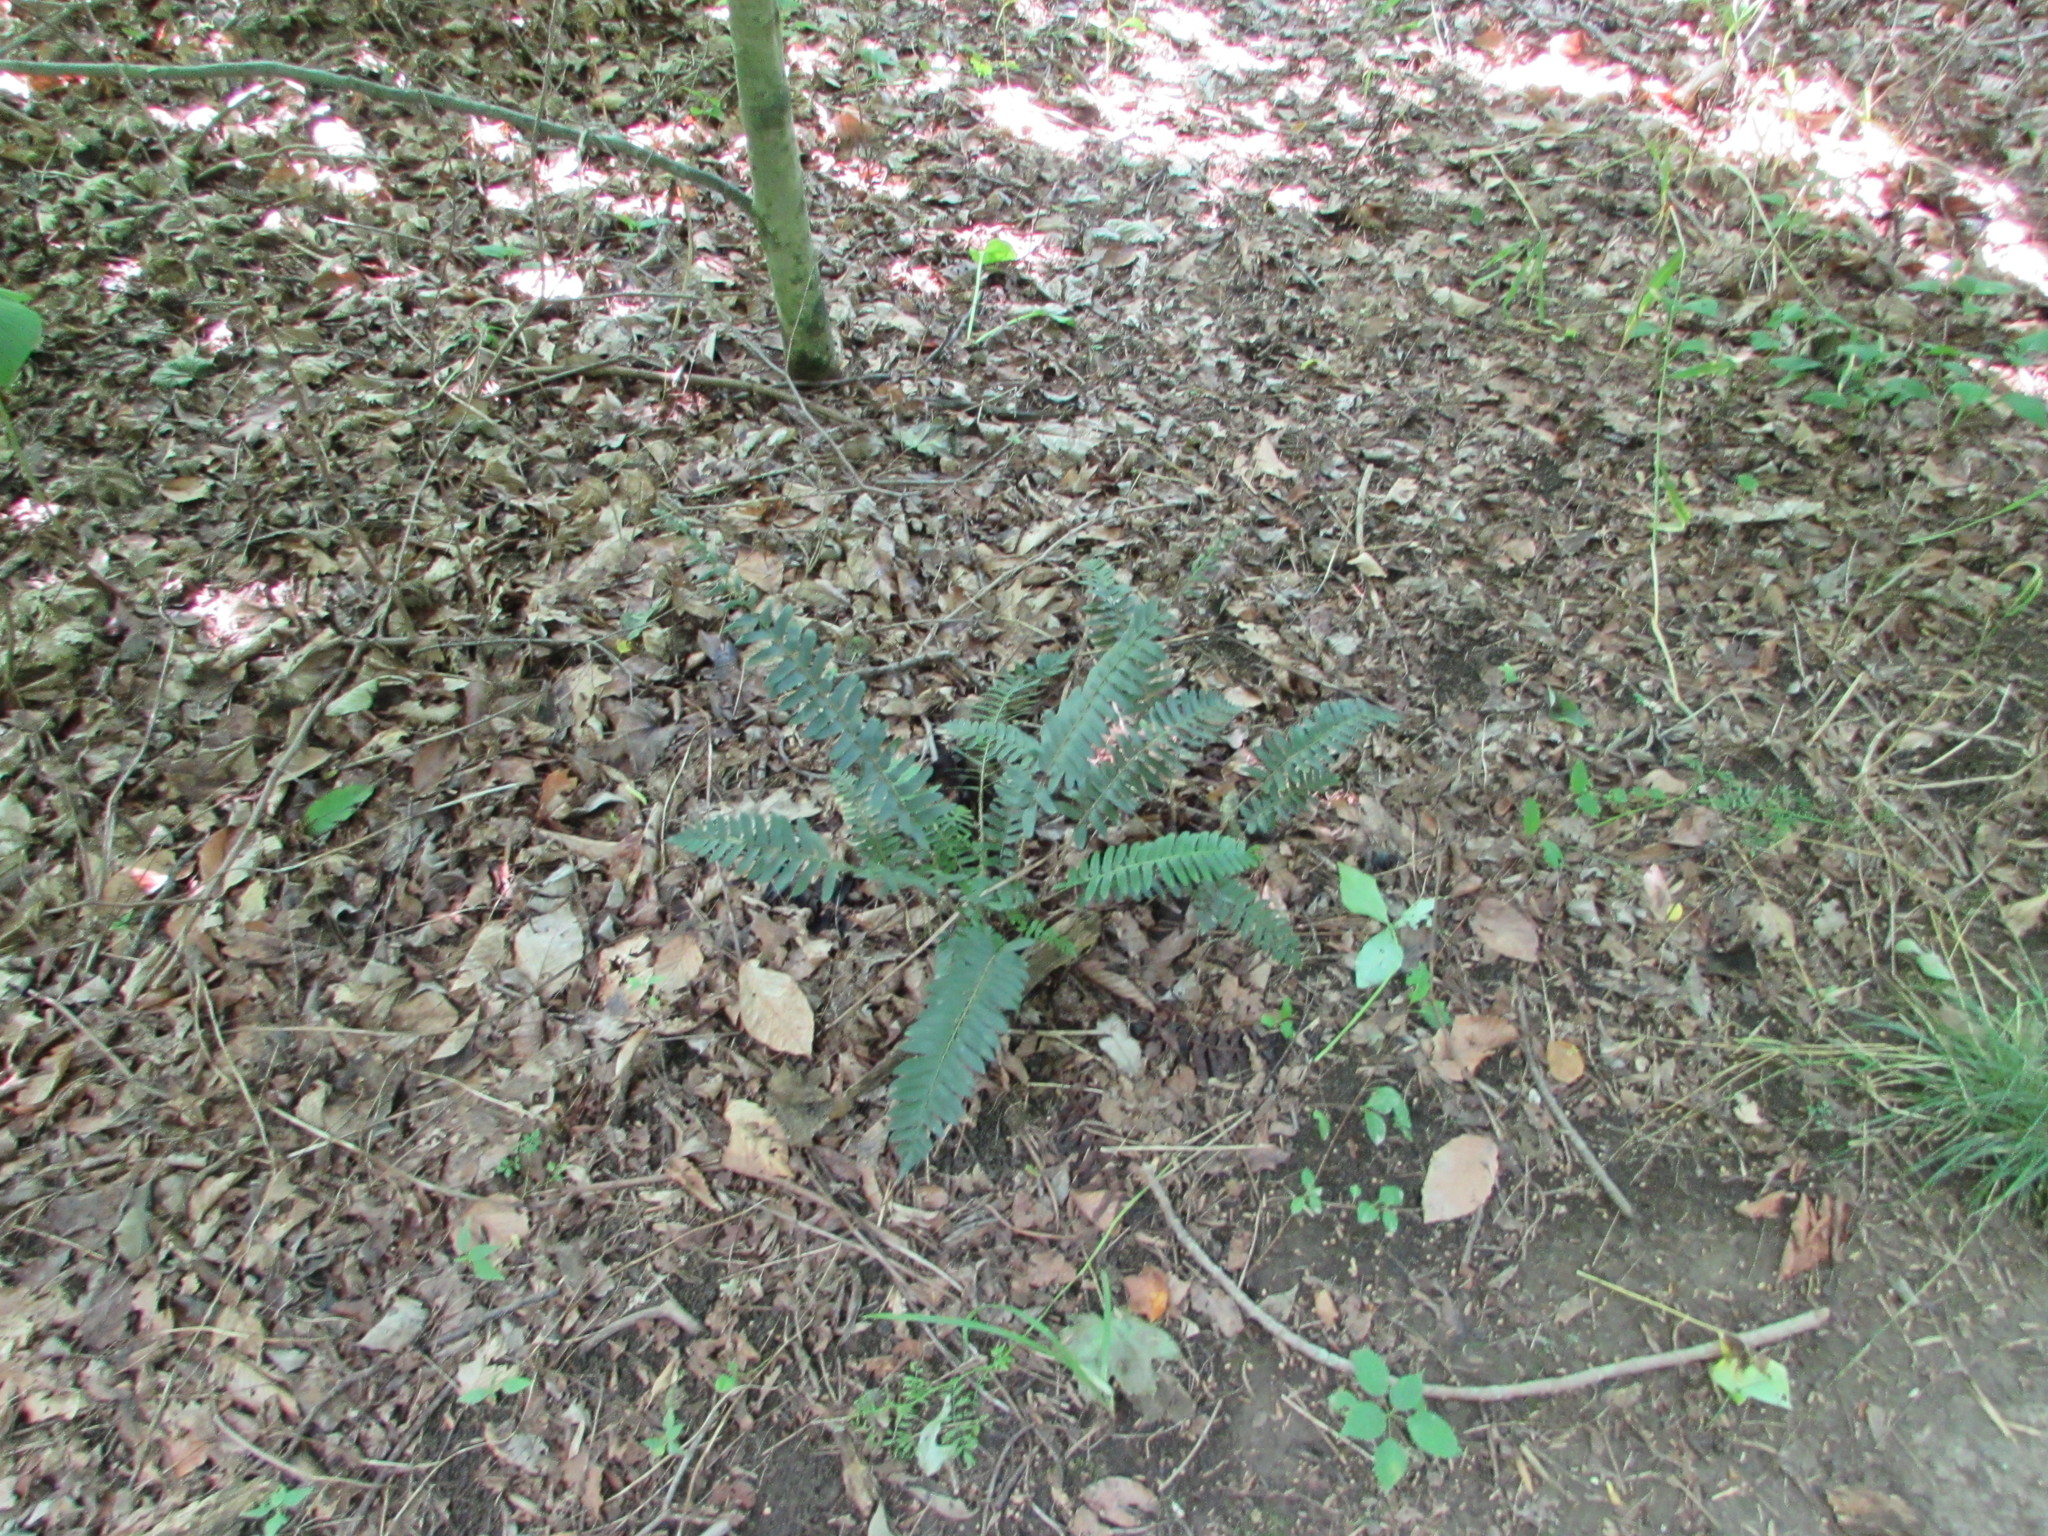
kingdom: Plantae
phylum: Tracheophyta
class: Polypodiopsida
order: Polypodiales
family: Dryopteridaceae
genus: Polystichum
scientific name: Polystichum acrostichoides
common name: Christmas fern
